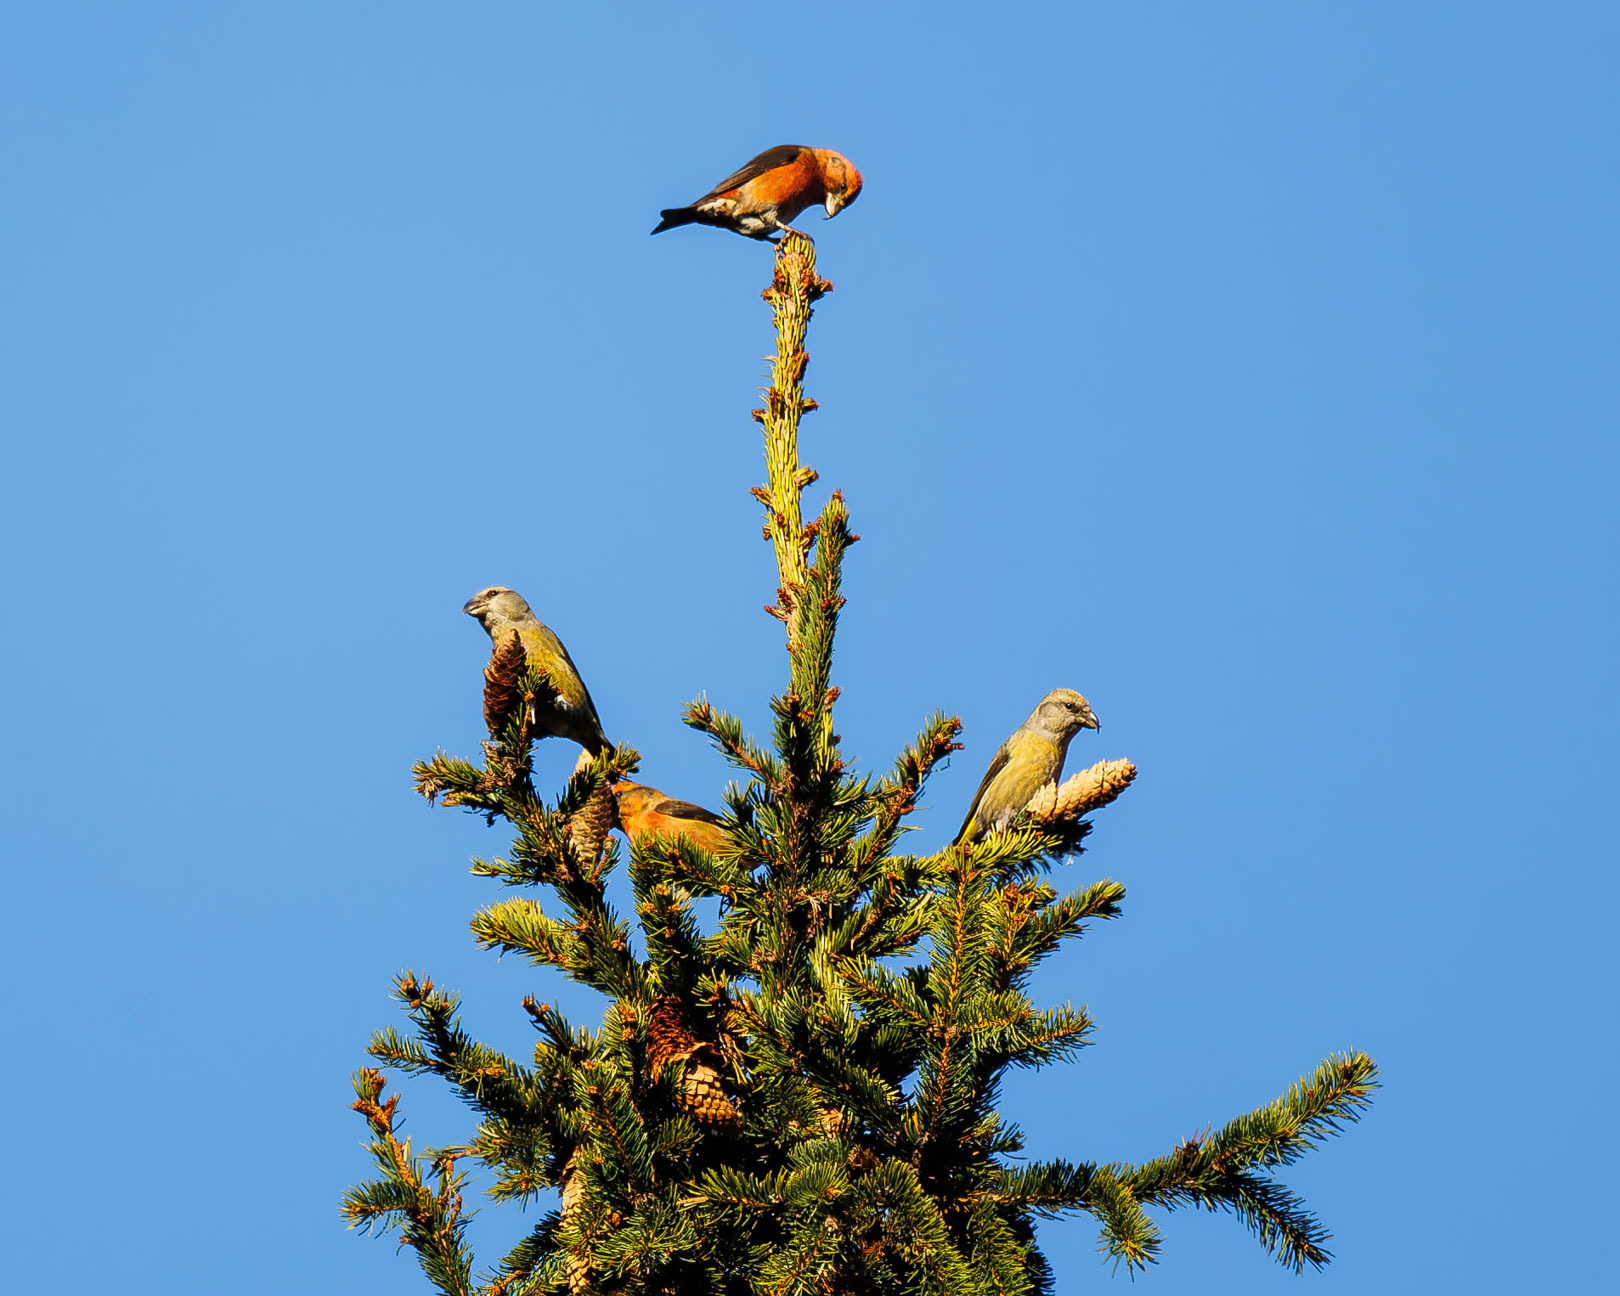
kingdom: Animalia
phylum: Chordata
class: Aves
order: Passeriformes
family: Fringillidae
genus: Loxia
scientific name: Loxia curvirostra
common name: Red crossbill
